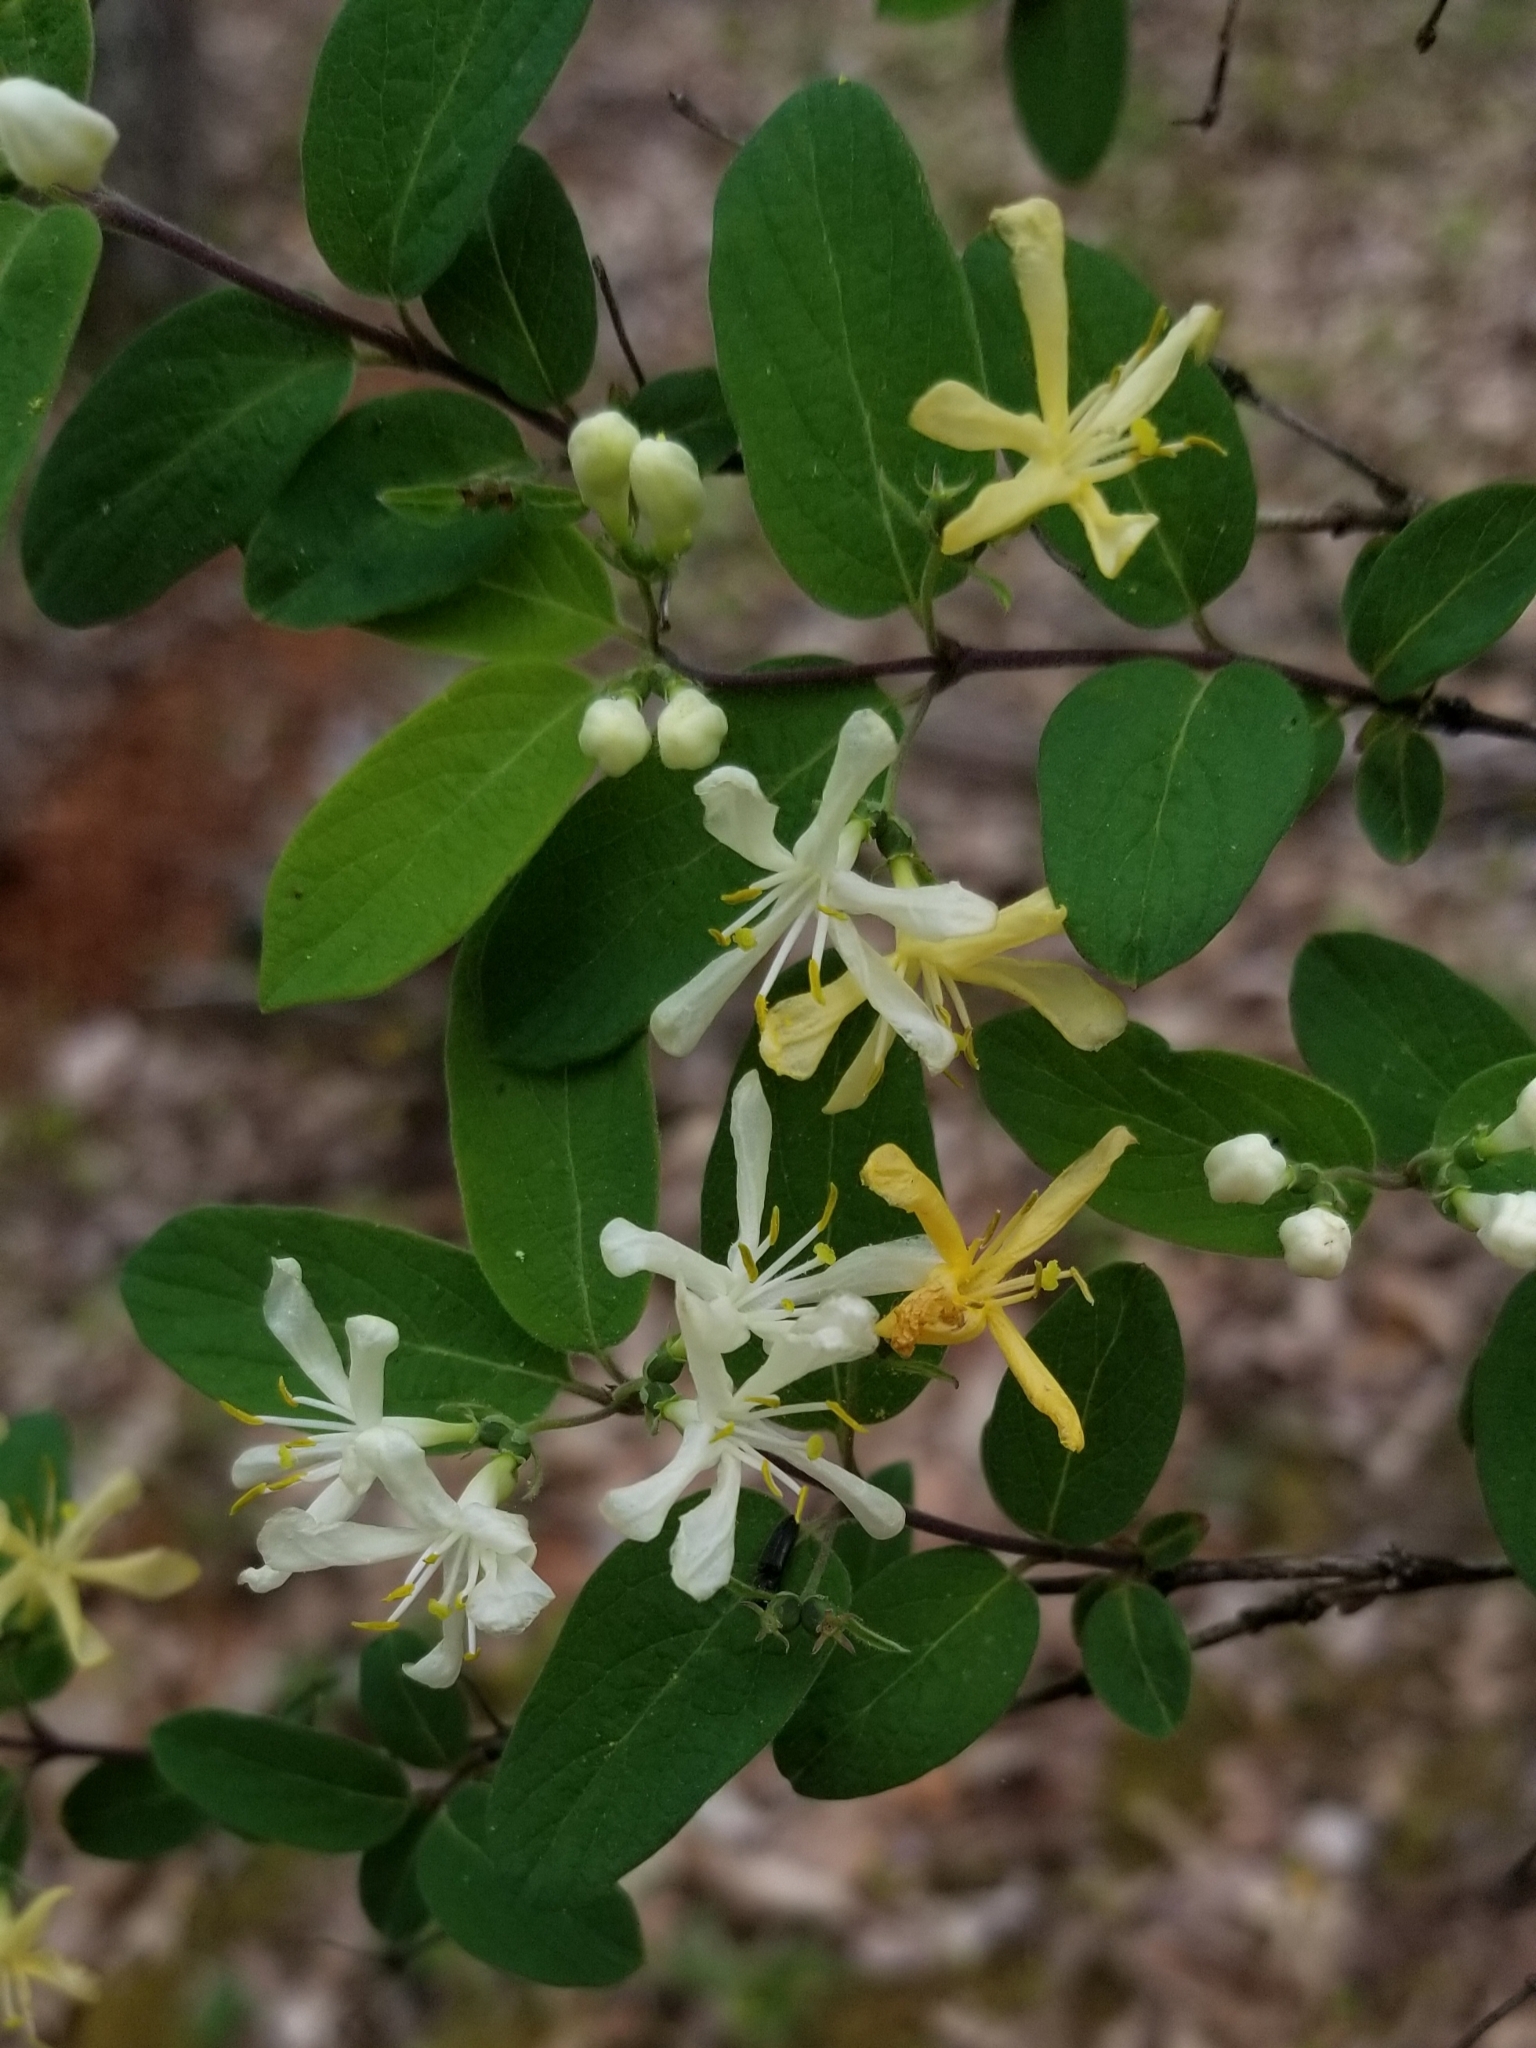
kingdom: Plantae
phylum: Tracheophyta
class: Magnoliopsida
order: Dipsacales
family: Caprifoliaceae
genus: Lonicera
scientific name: Lonicera
